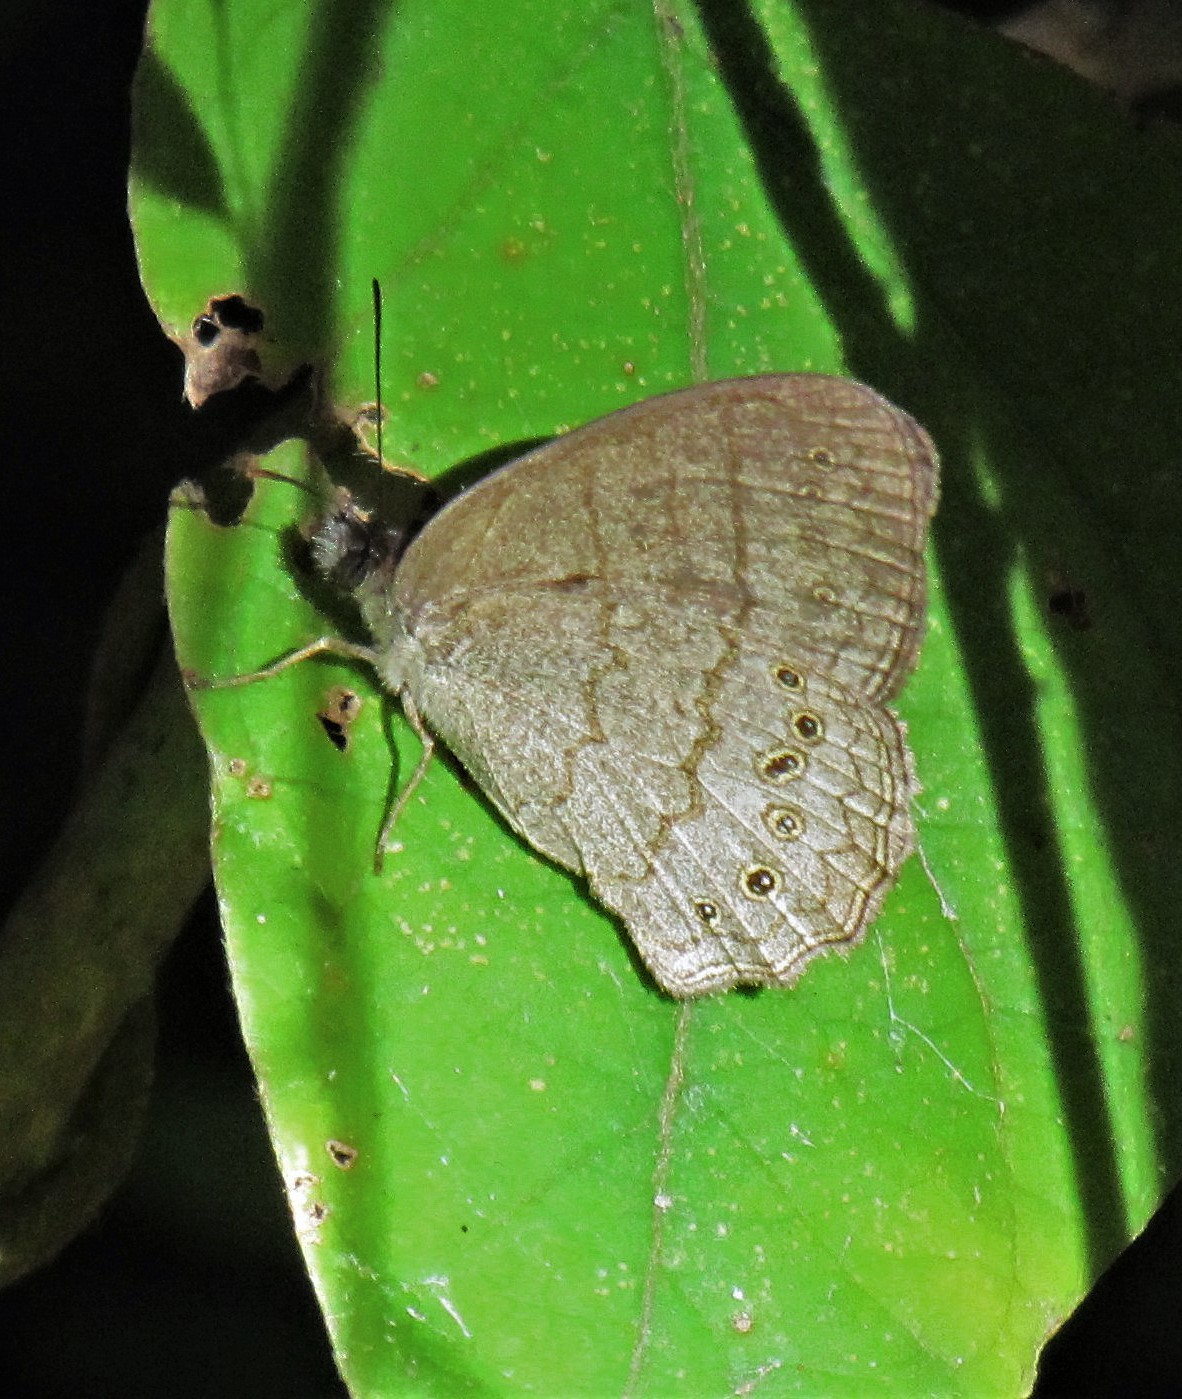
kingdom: Animalia
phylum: Arthropoda
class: Insecta
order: Lepidoptera
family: Nymphalidae
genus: Paryphthimoides
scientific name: Paryphthimoides poltys
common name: Poltys satyr
